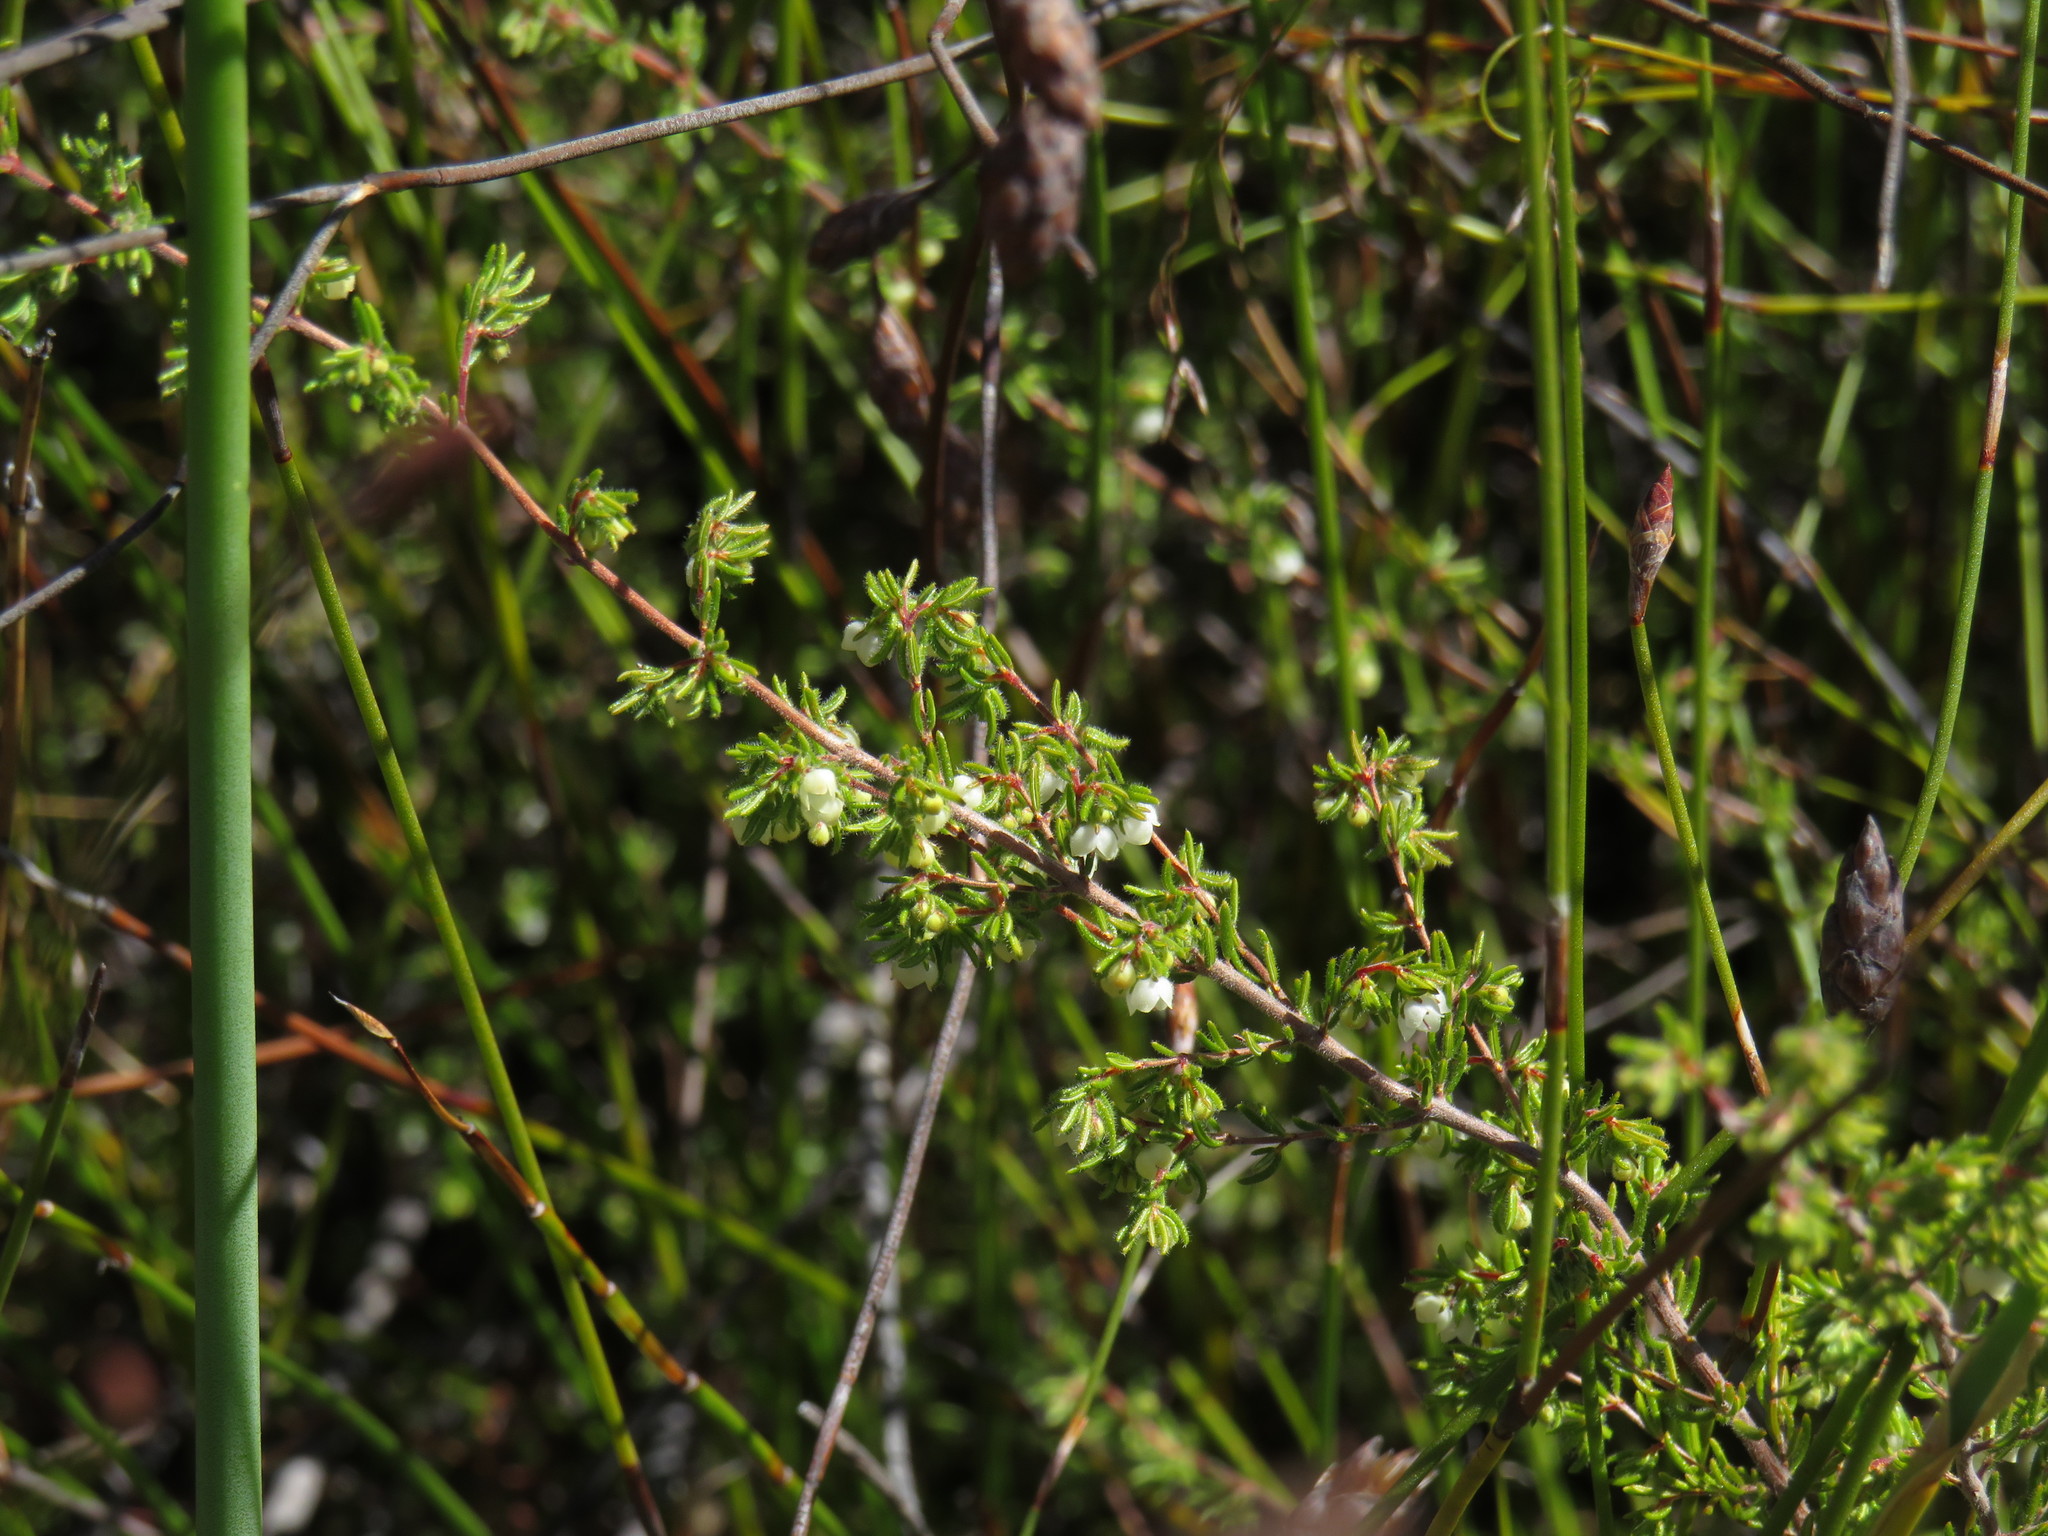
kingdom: Plantae
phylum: Tracheophyta
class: Magnoliopsida
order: Ericales
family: Ericaceae
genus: Erica
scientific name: Erica distorta
